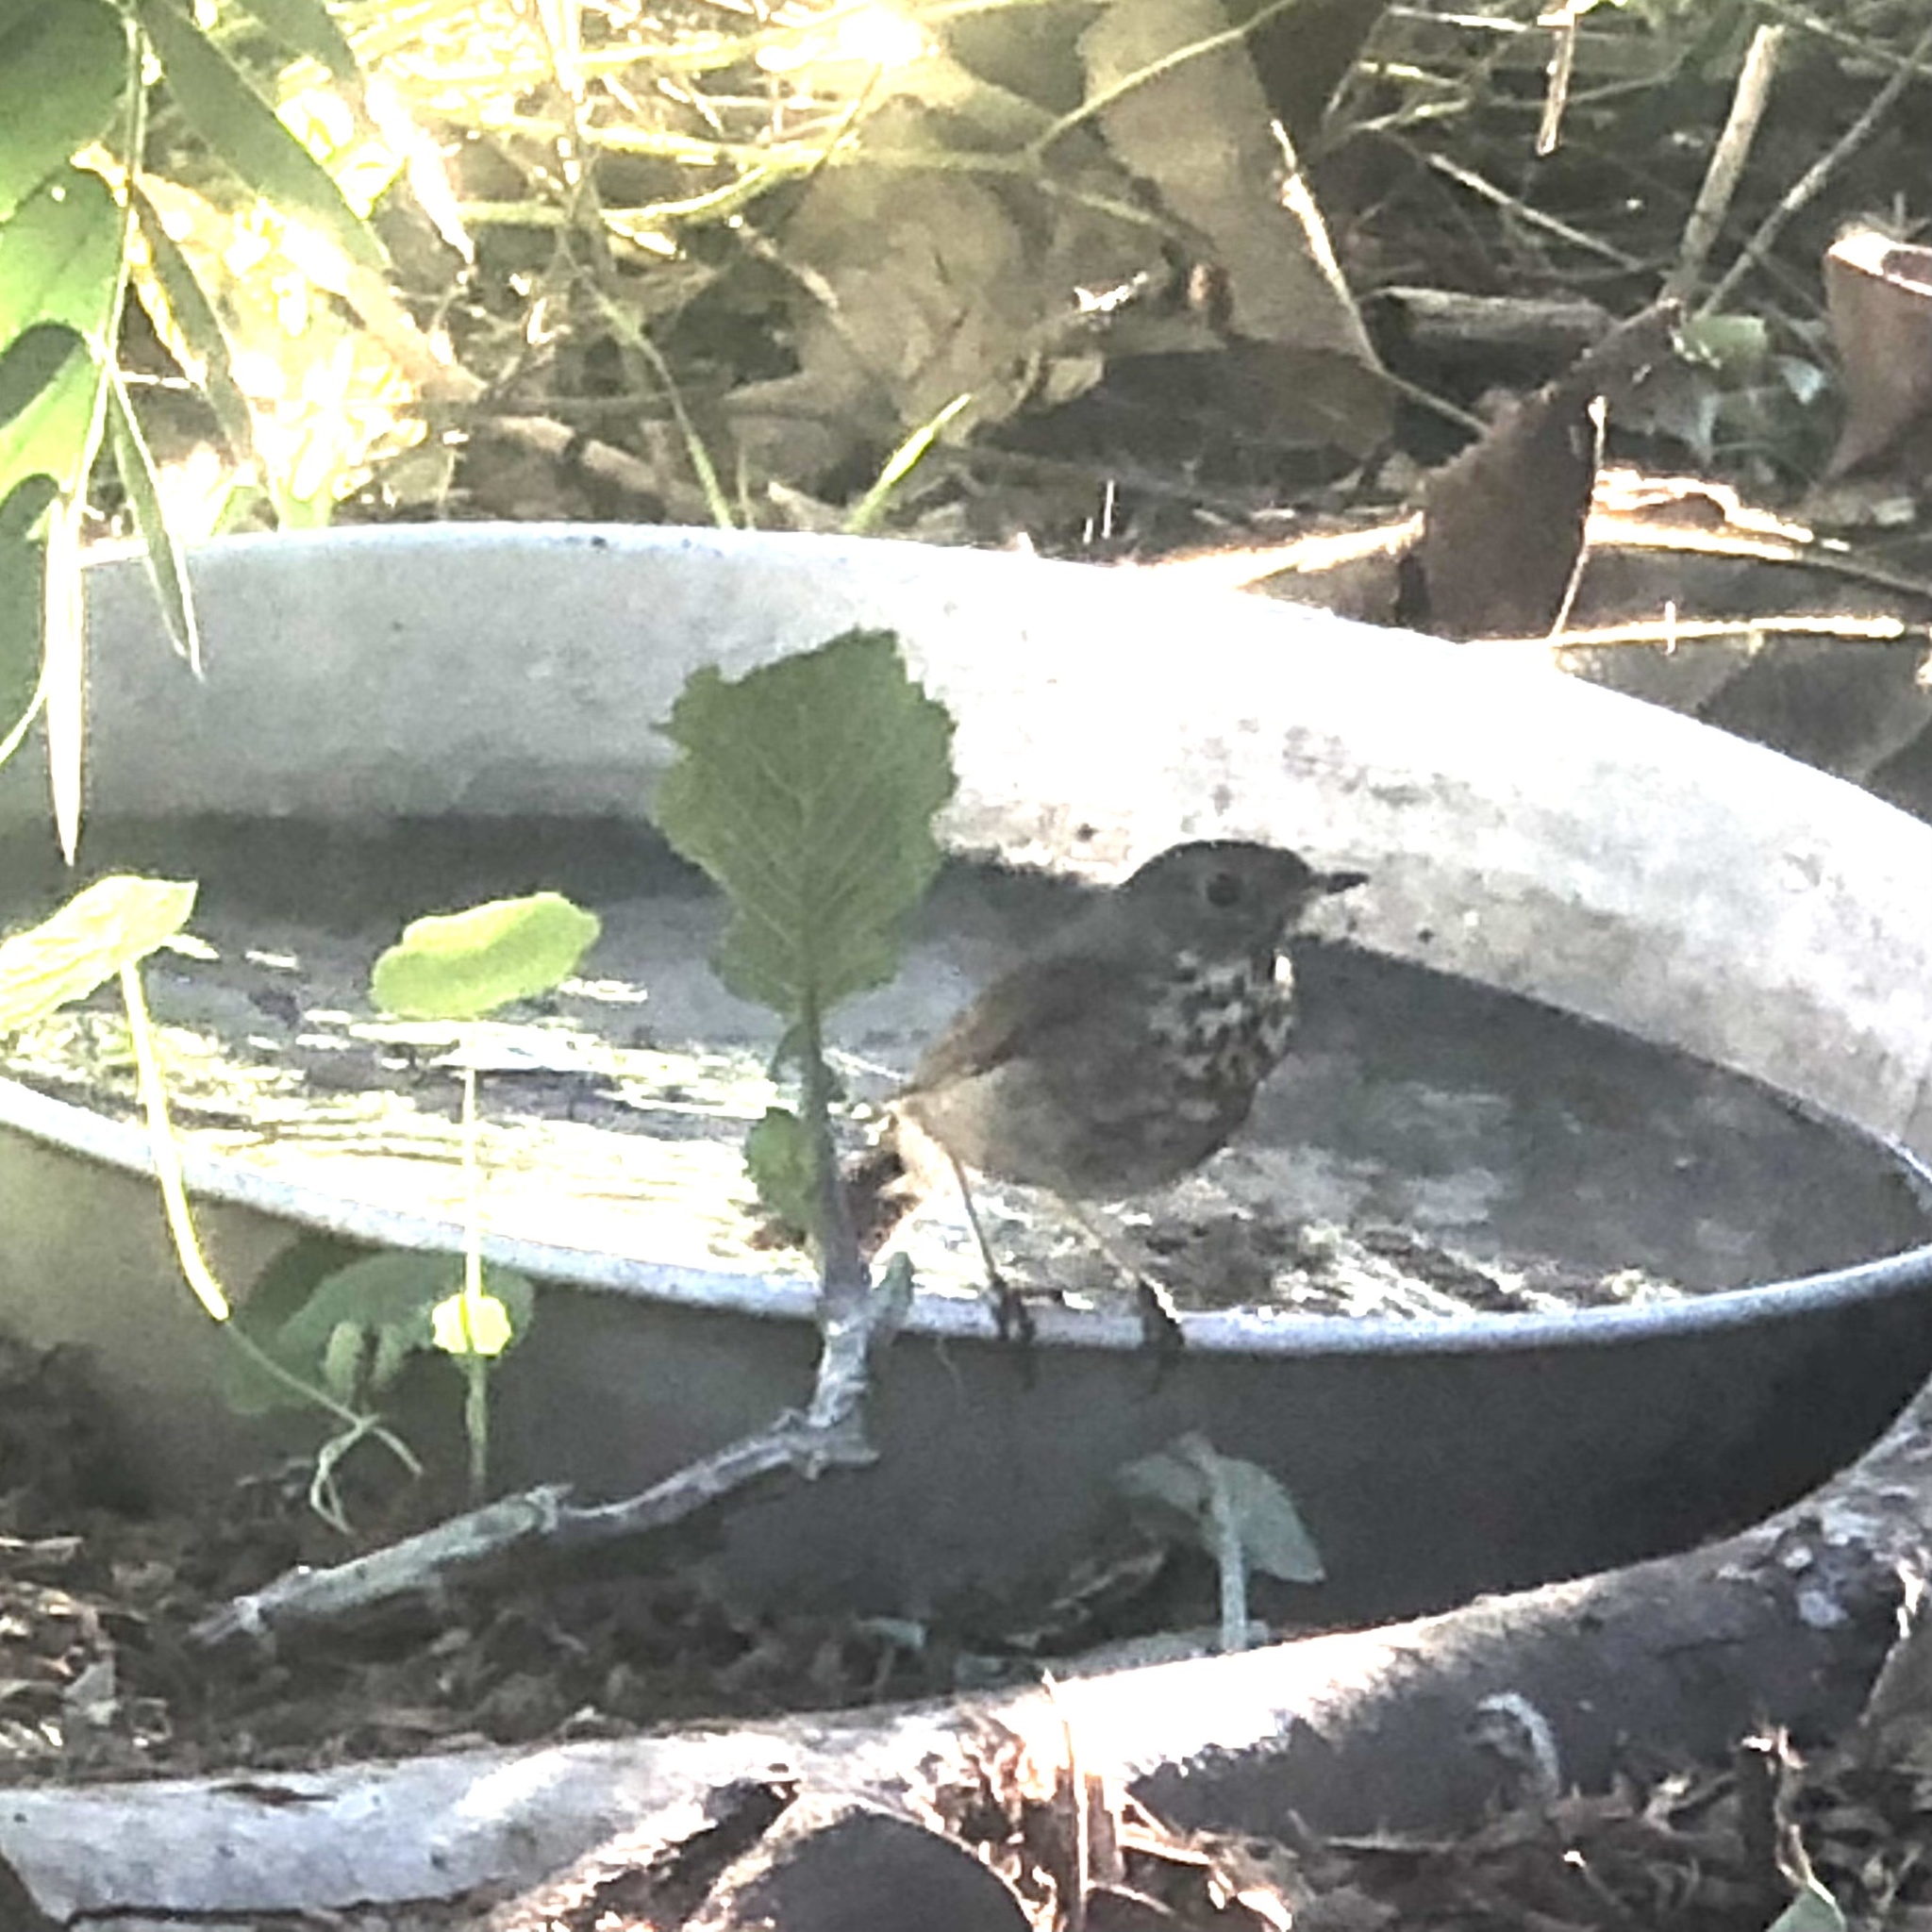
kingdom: Animalia
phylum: Chordata
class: Aves
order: Passeriformes
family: Turdidae
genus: Catharus
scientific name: Catharus guttatus
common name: Hermit thrush
